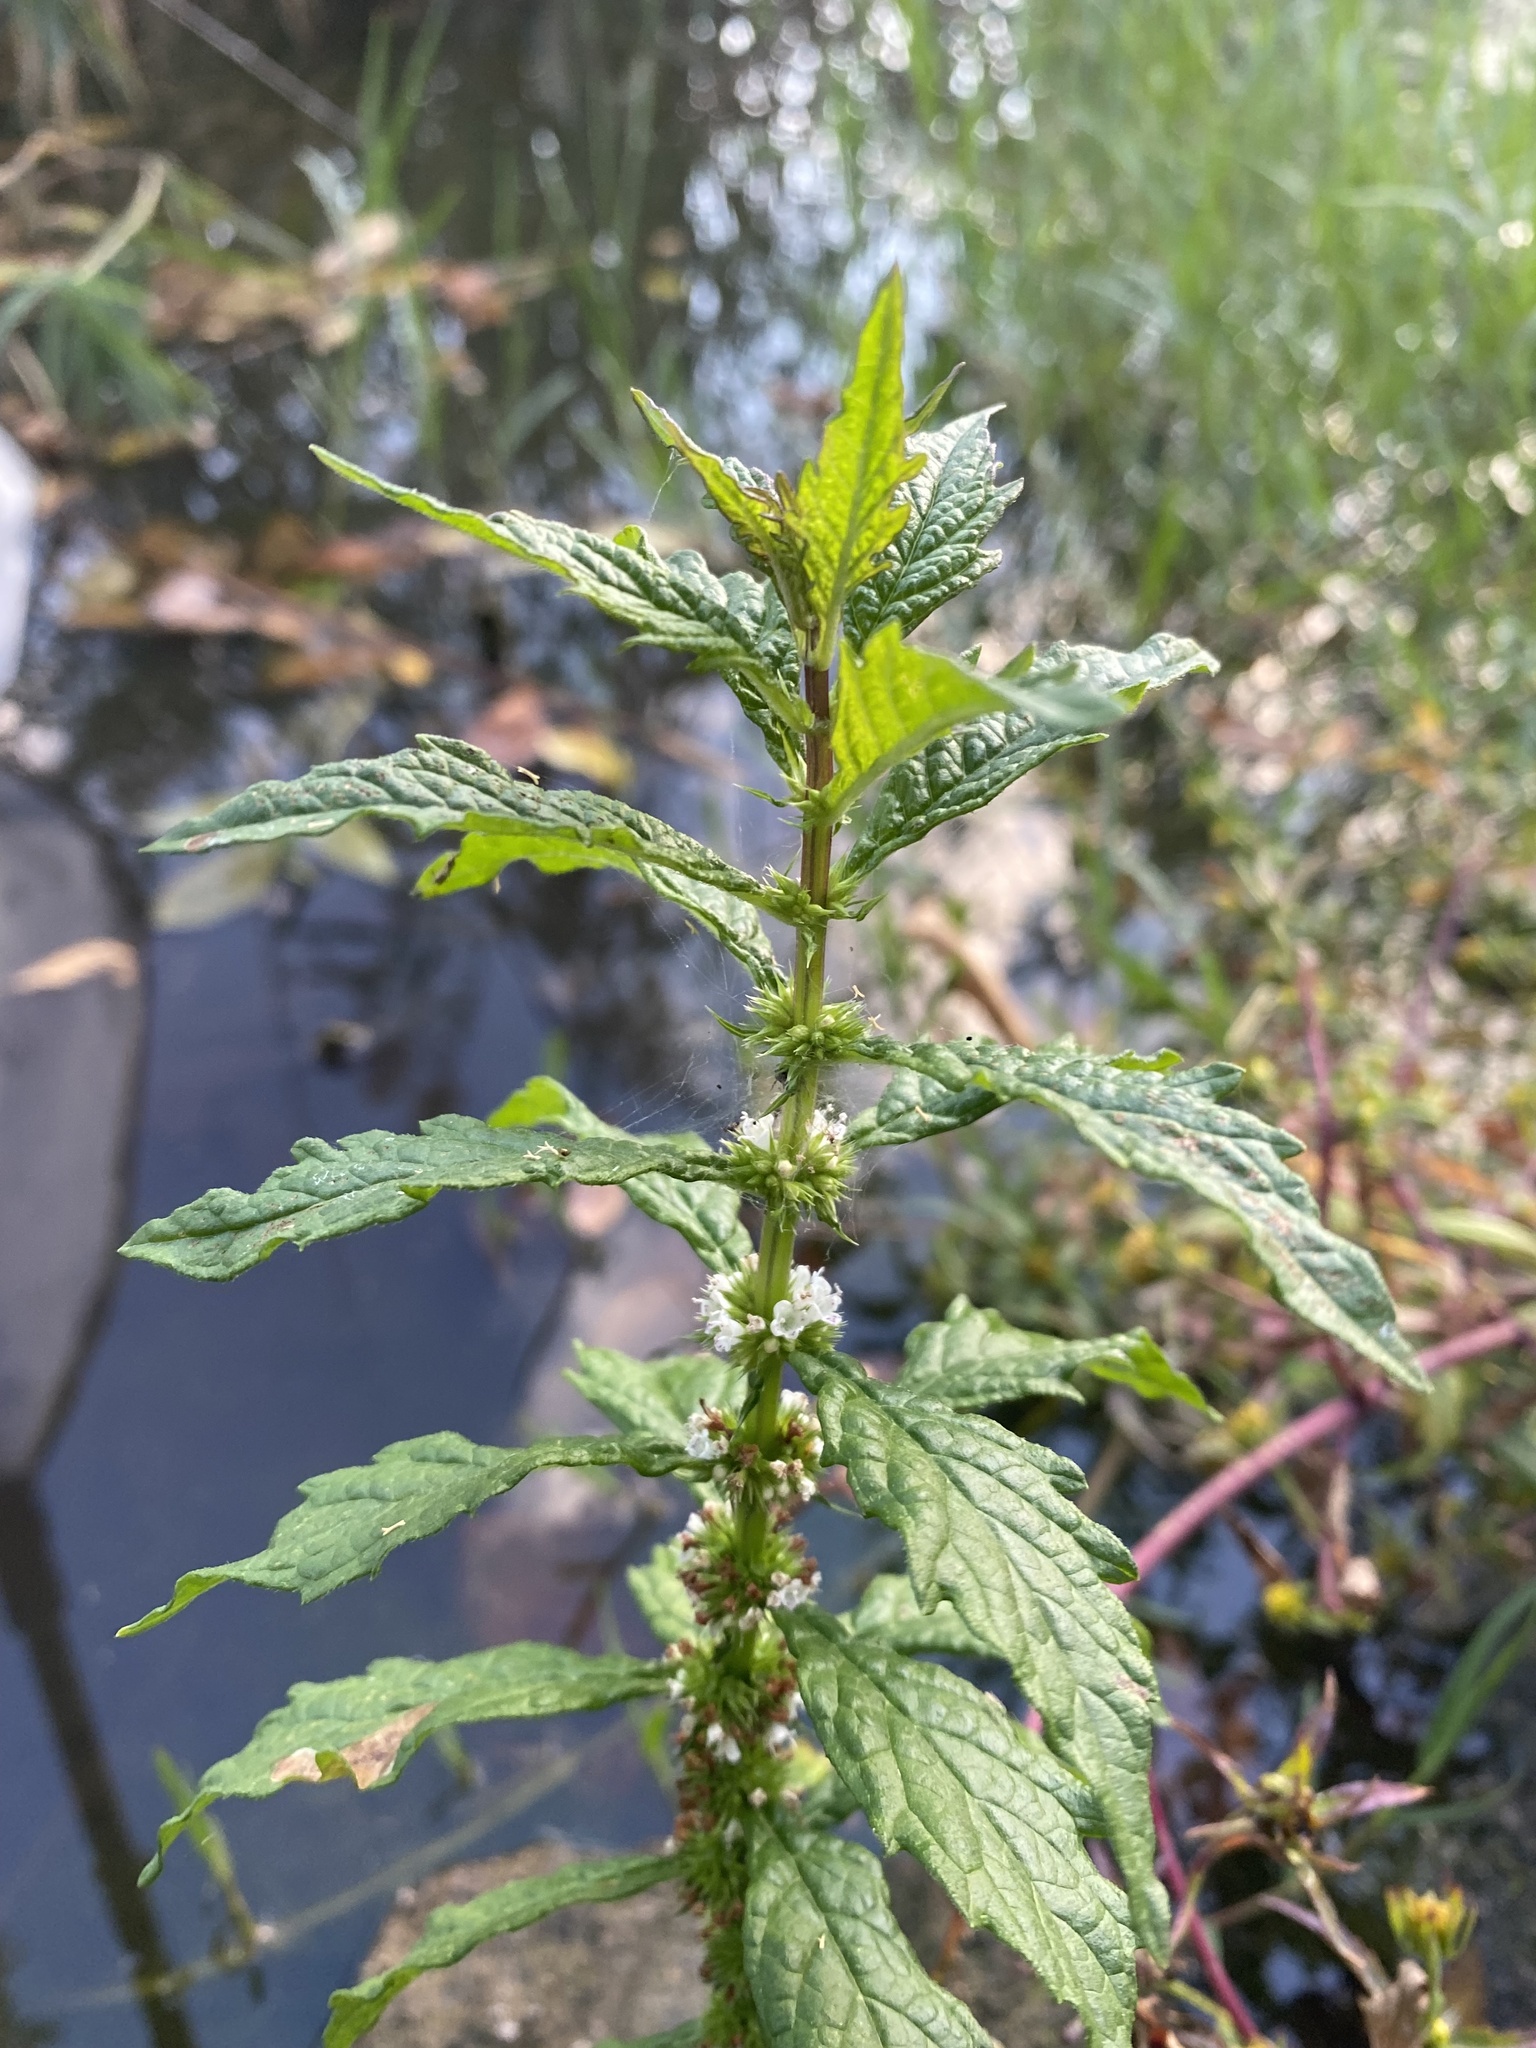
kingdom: Plantae
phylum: Tracheophyta
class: Magnoliopsida
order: Lamiales
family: Lamiaceae
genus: Lycopus
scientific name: Lycopus europaeus
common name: European bugleweed
